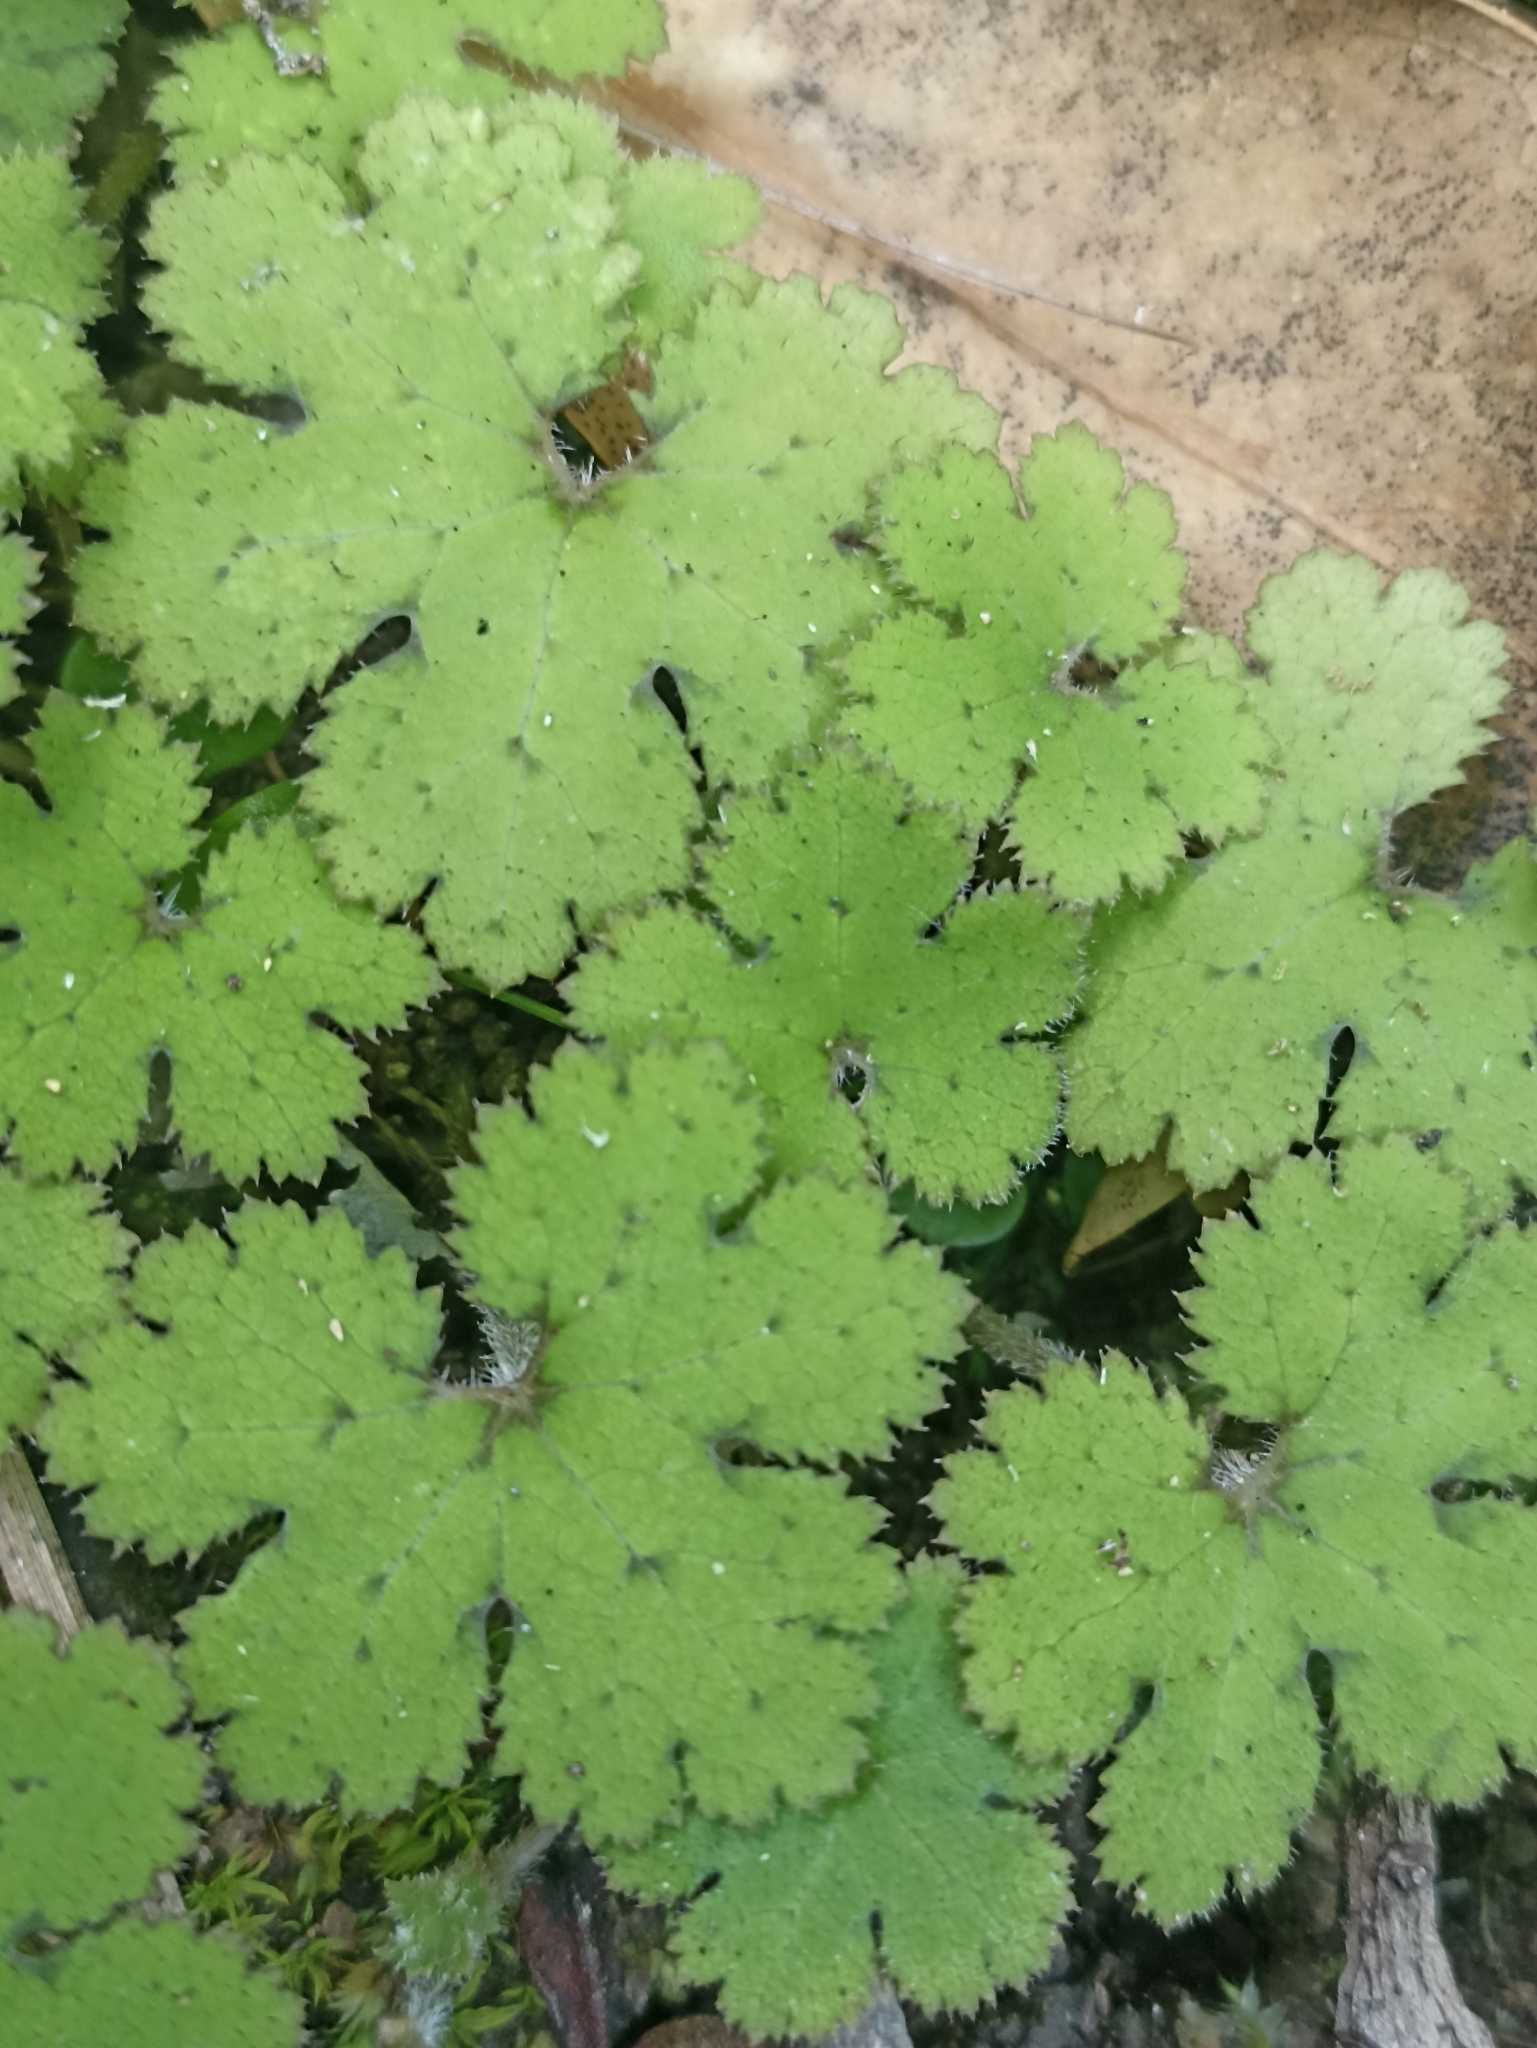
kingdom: Plantae
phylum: Tracheophyta
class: Magnoliopsida
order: Apiales
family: Araliaceae
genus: Hydrocotyle
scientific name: Hydrocotyle elongata
